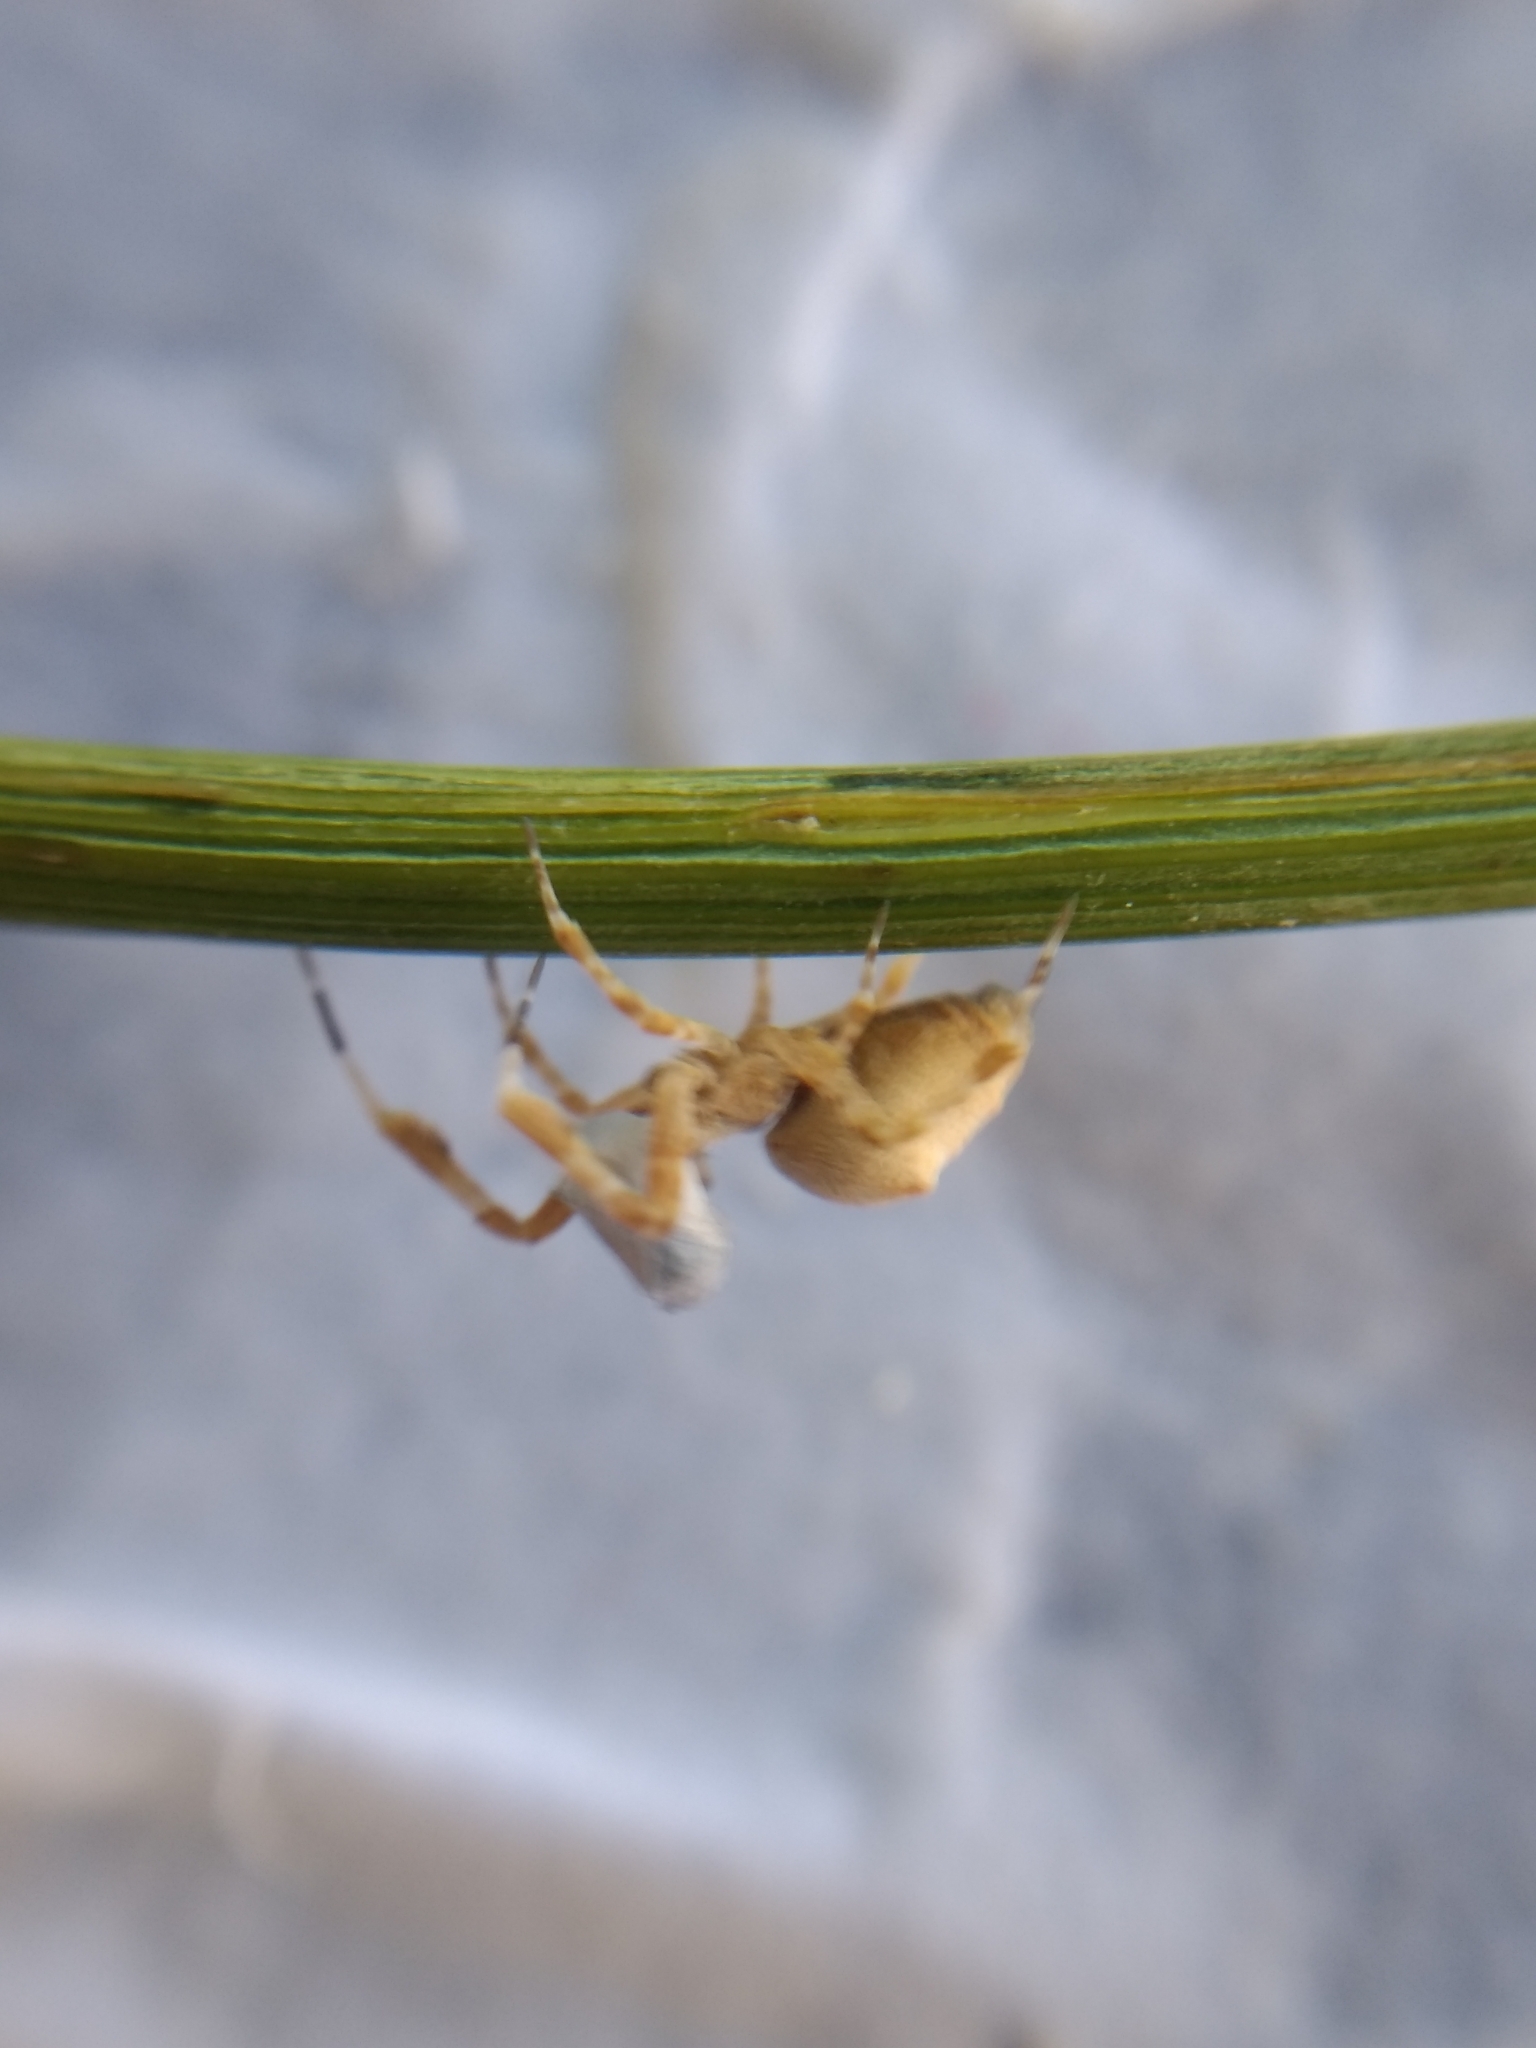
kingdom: Animalia
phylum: Arthropoda
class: Arachnida
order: Araneae
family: Uloboridae
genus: Uloborus
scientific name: Uloborus diversus
